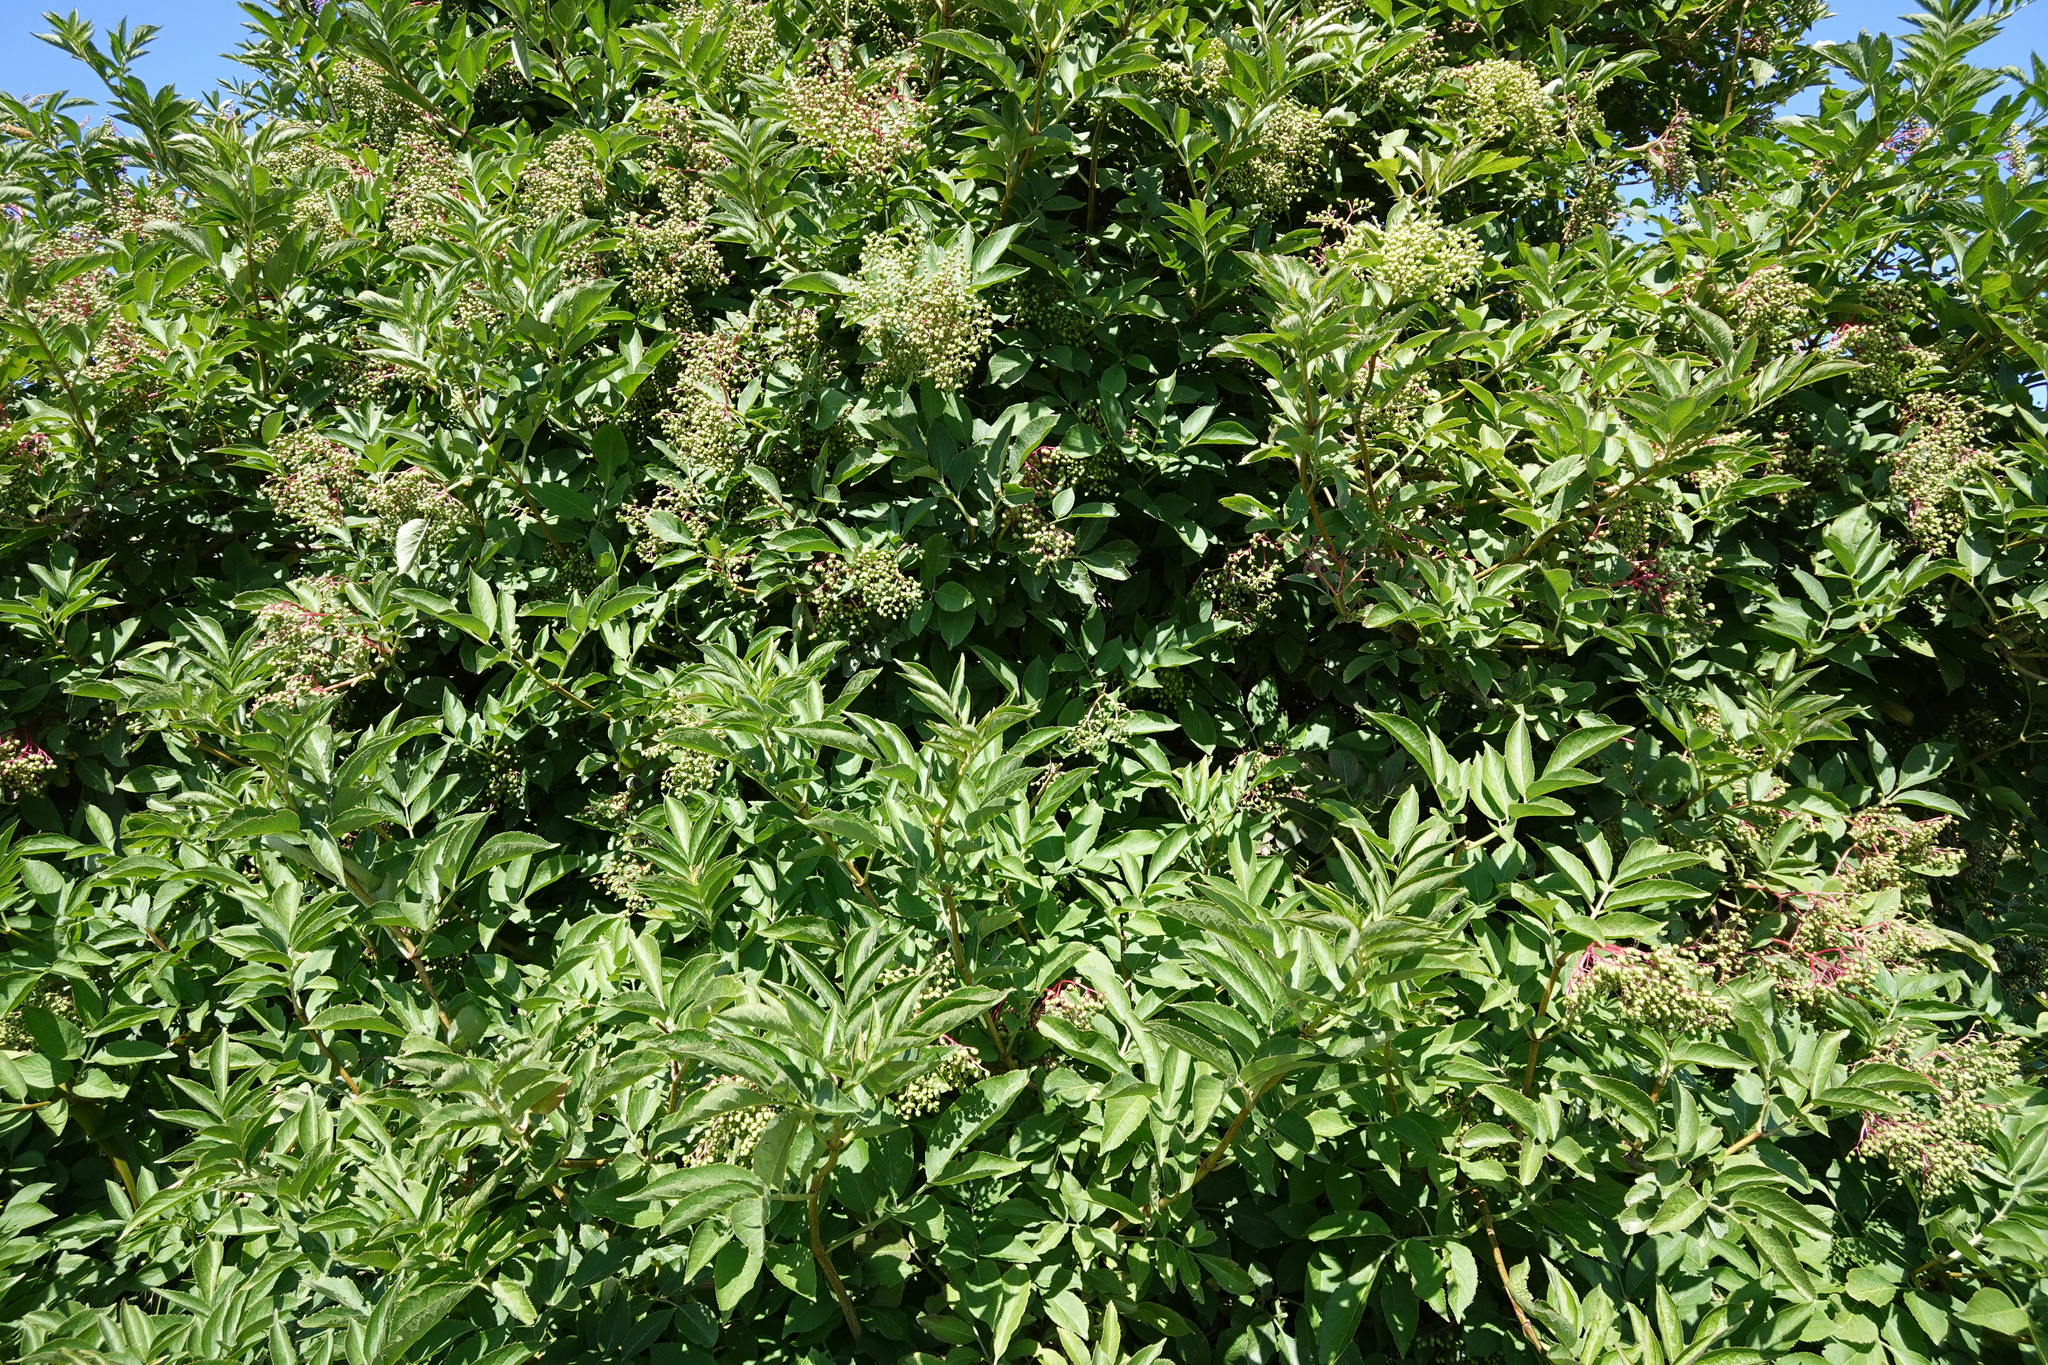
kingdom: Plantae
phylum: Tracheophyta
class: Magnoliopsida
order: Dipsacales
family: Viburnaceae
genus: Sambucus
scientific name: Sambucus nigra
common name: Elder
